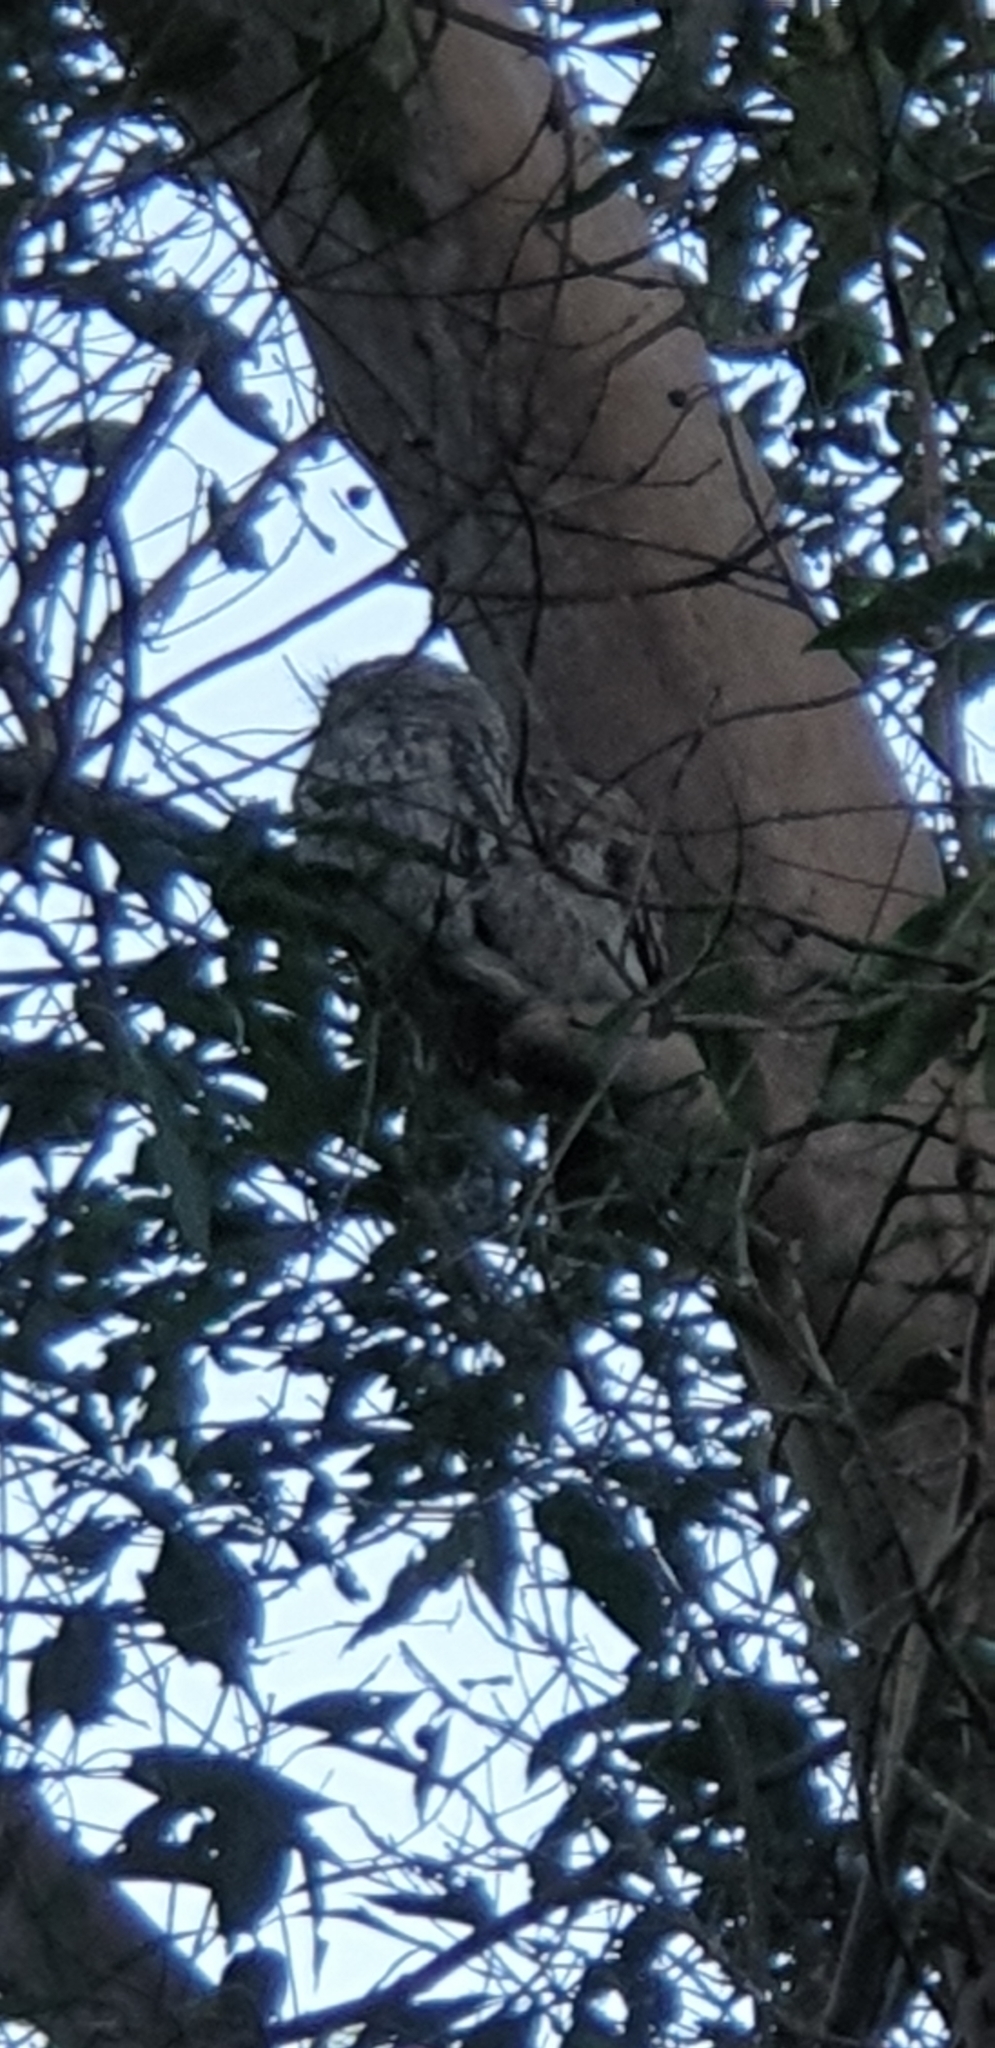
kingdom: Animalia
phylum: Chordata
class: Aves
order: Caprimulgiformes
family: Podargidae
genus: Podargus
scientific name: Podargus strigoides
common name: Tawny frogmouth
